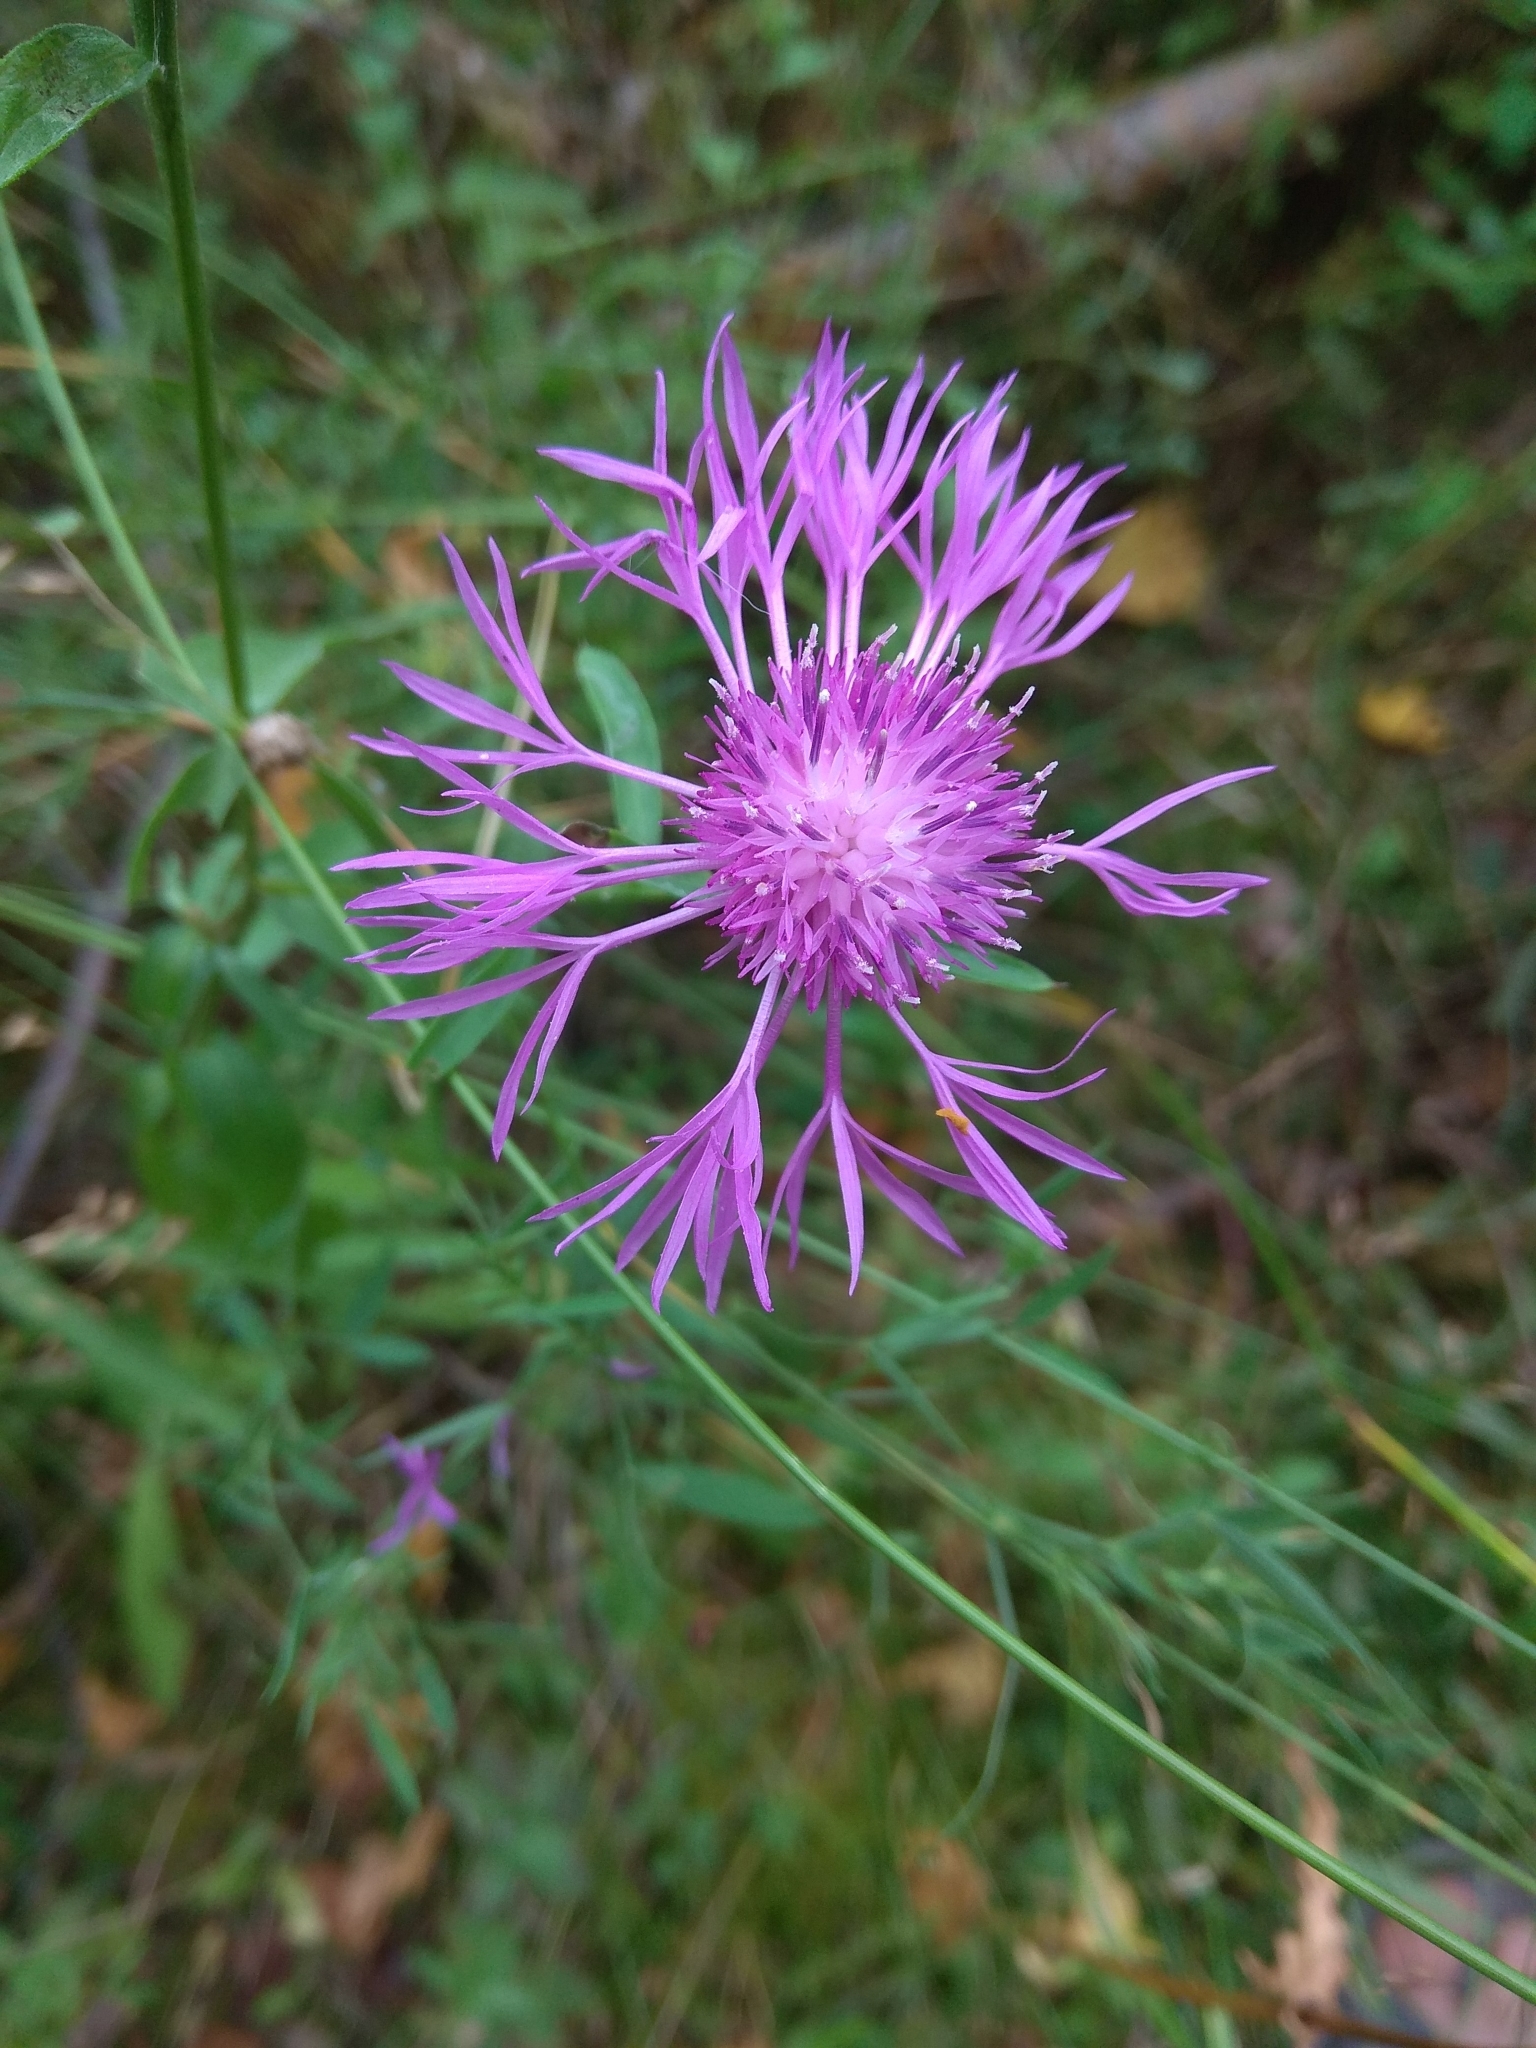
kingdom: Plantae
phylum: Tracheophyta
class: Magnoliopsida
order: Asterales
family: Asteraceae
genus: Centaurea
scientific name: Centaurea jacea
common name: Brown knapweed
